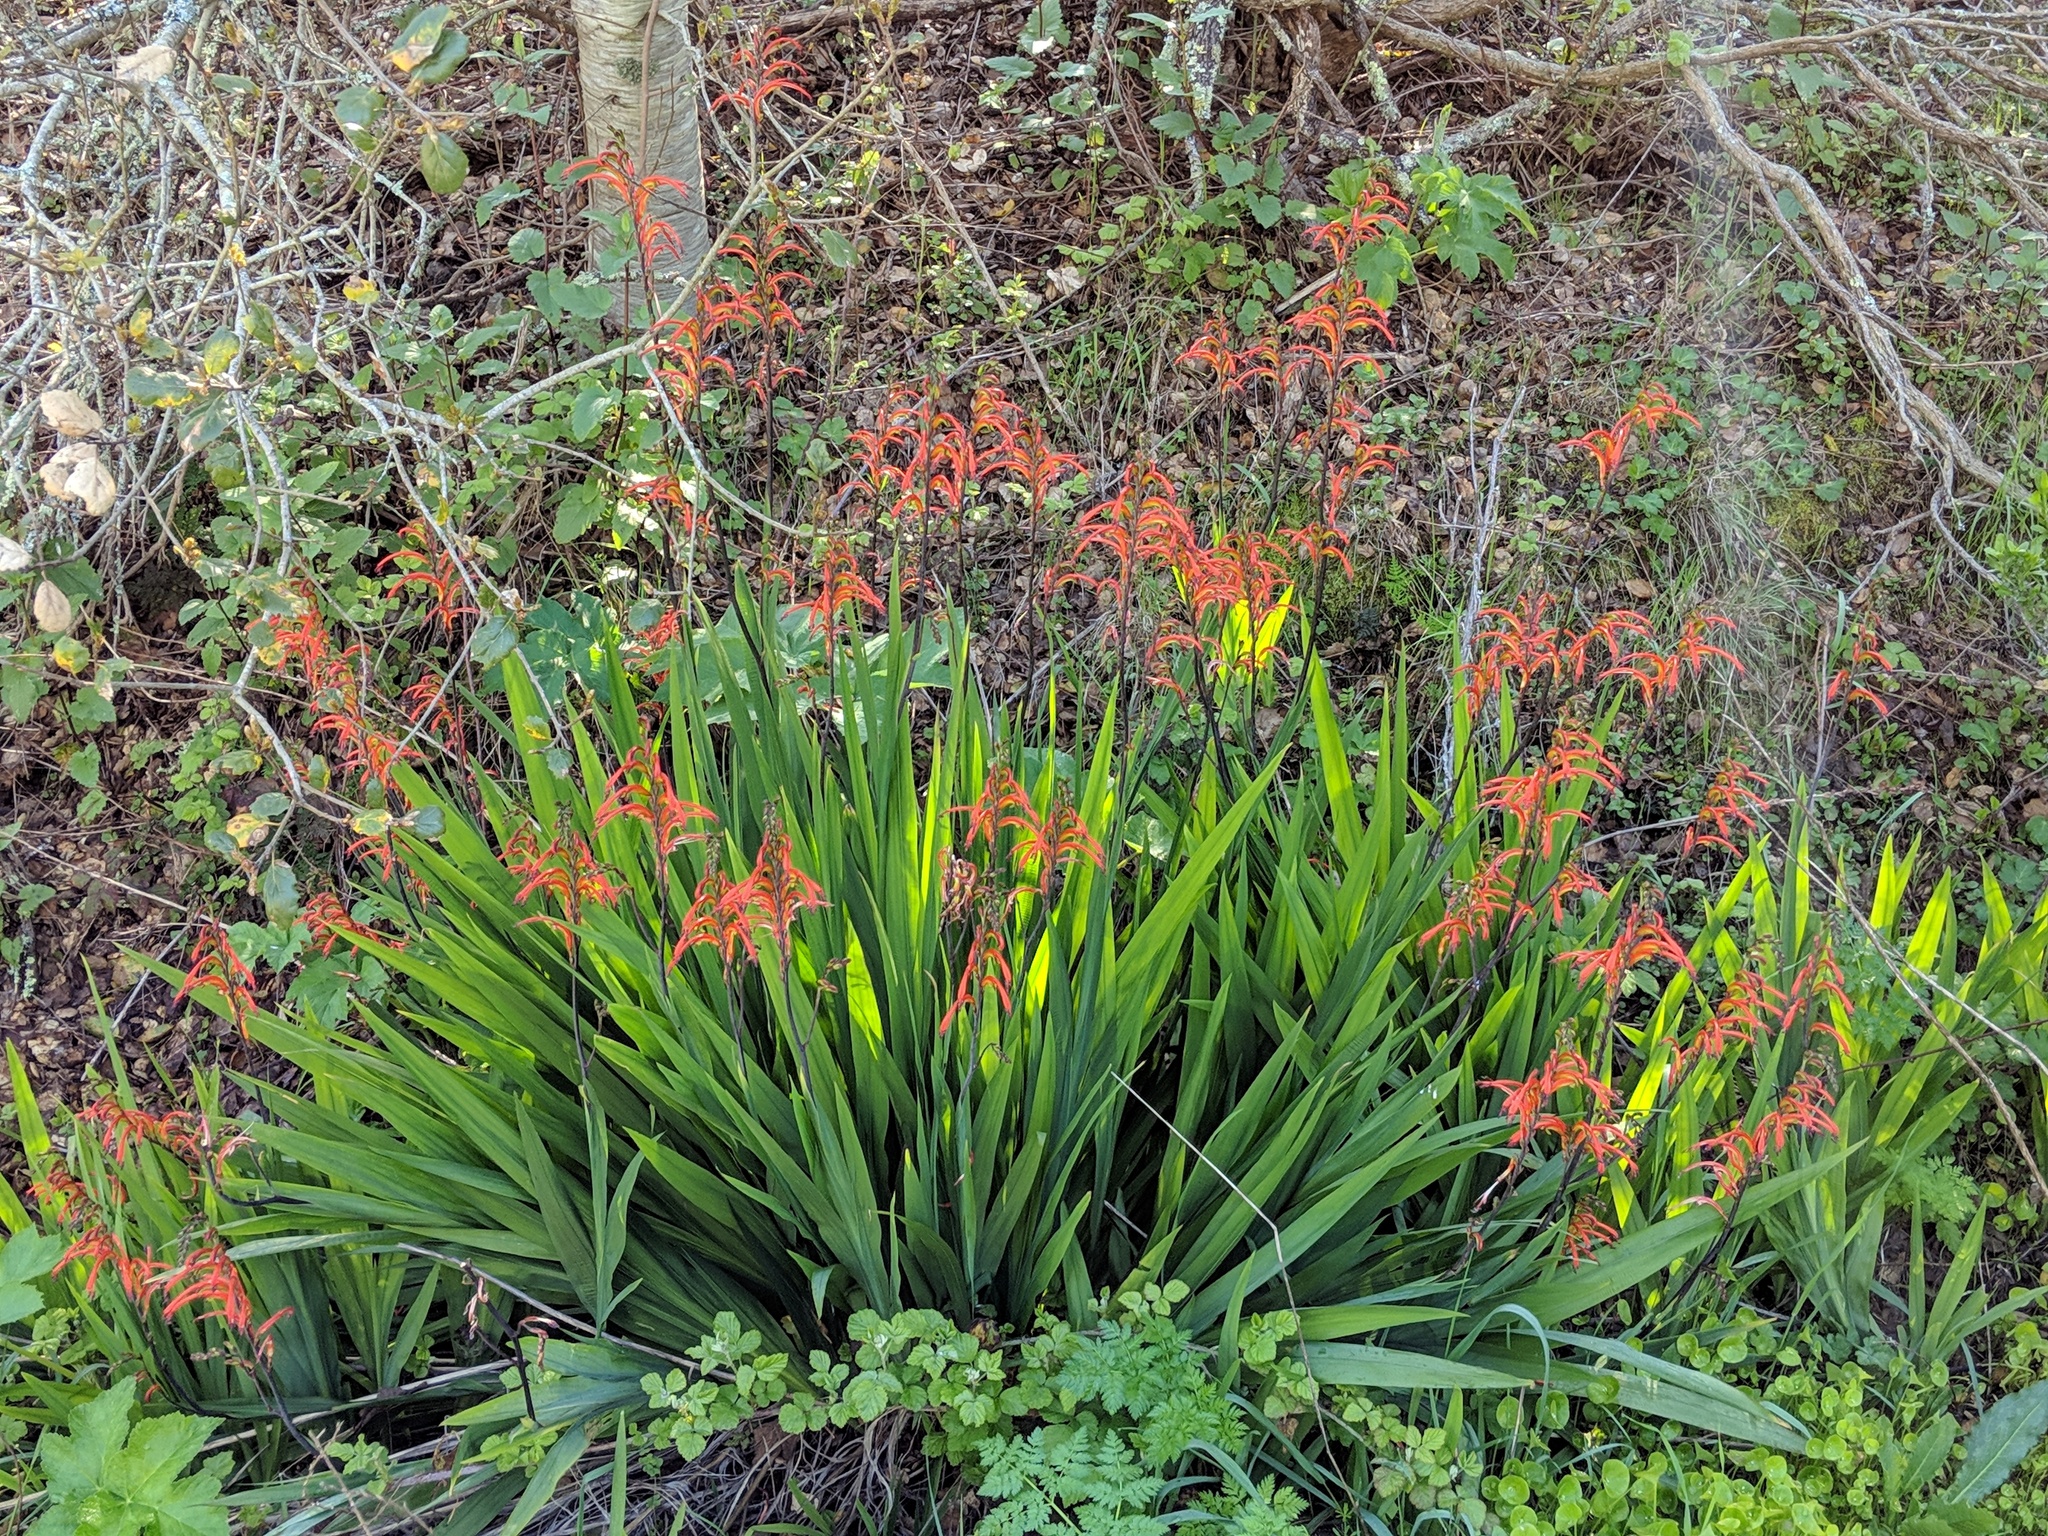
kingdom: Plantae
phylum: Tracheophyta
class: Liliopsida
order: Asparagales
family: Iridaceae
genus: Chasmanthe
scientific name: Chasmanthe bicolor
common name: Bicolor cobra lily
